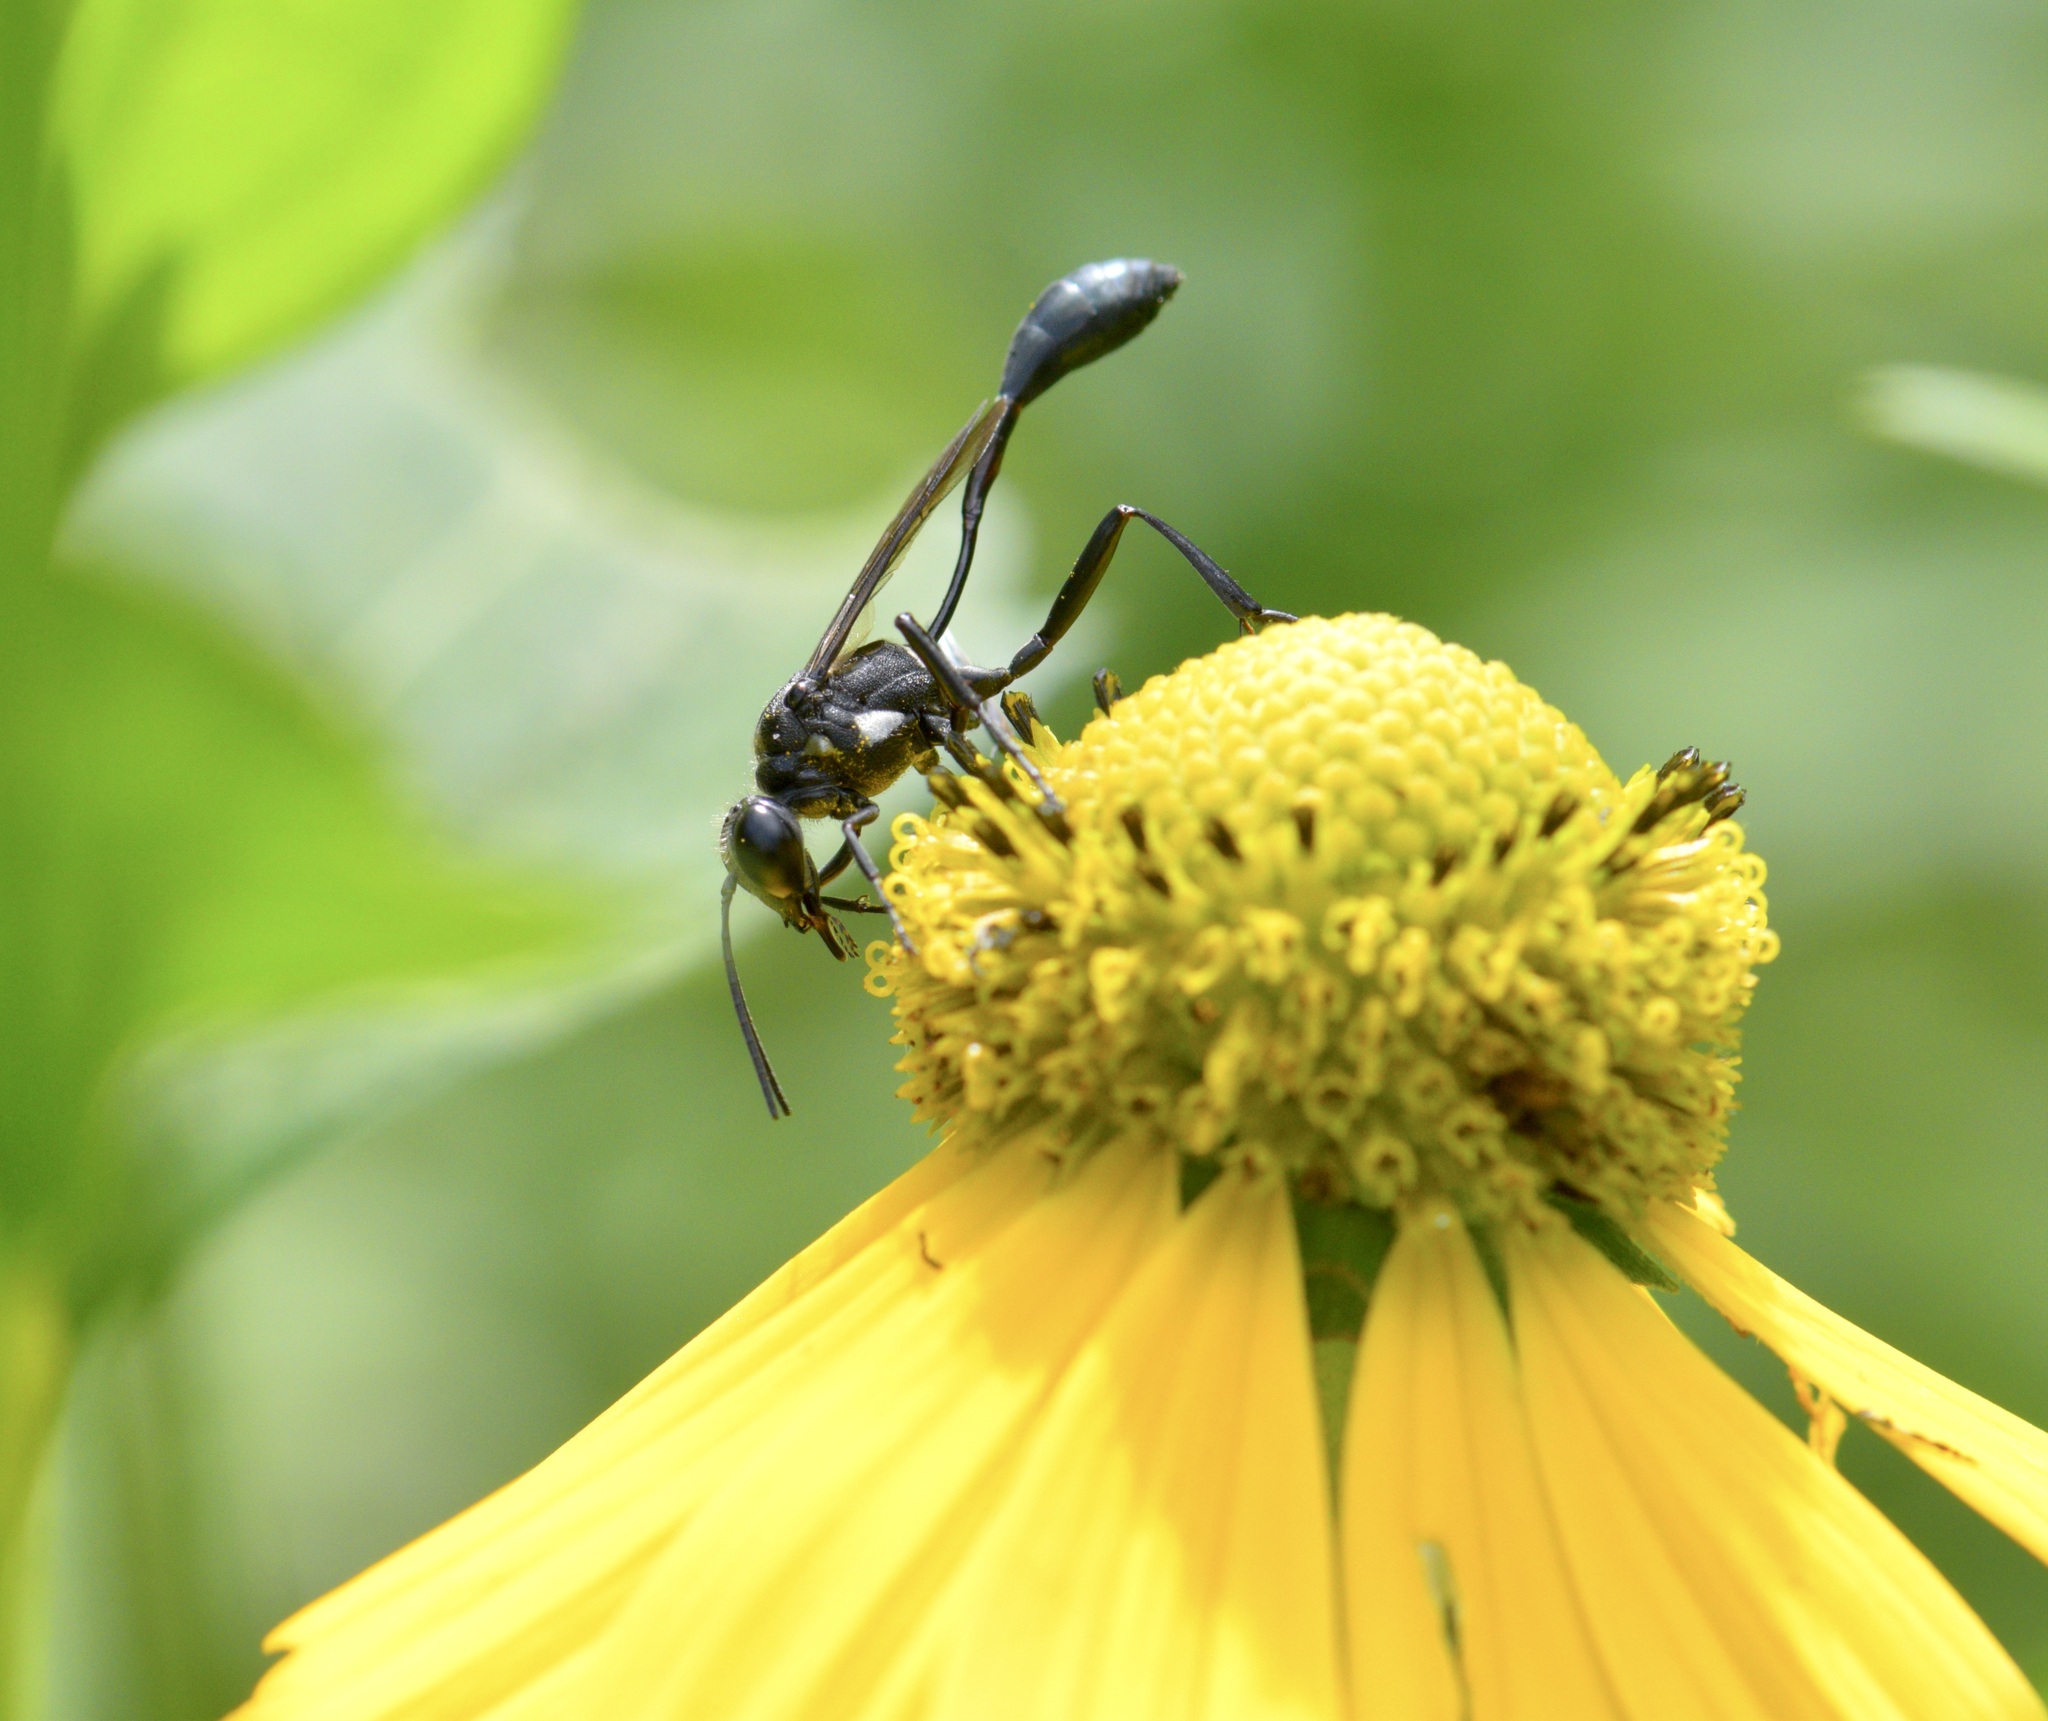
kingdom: Animalia
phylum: Arthropoda
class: Insecta
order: Hymenoptera
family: Sphecidae
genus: Eremnophila
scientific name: Eremnophila aureonotata
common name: Gold-marked thread-waisted wasp
